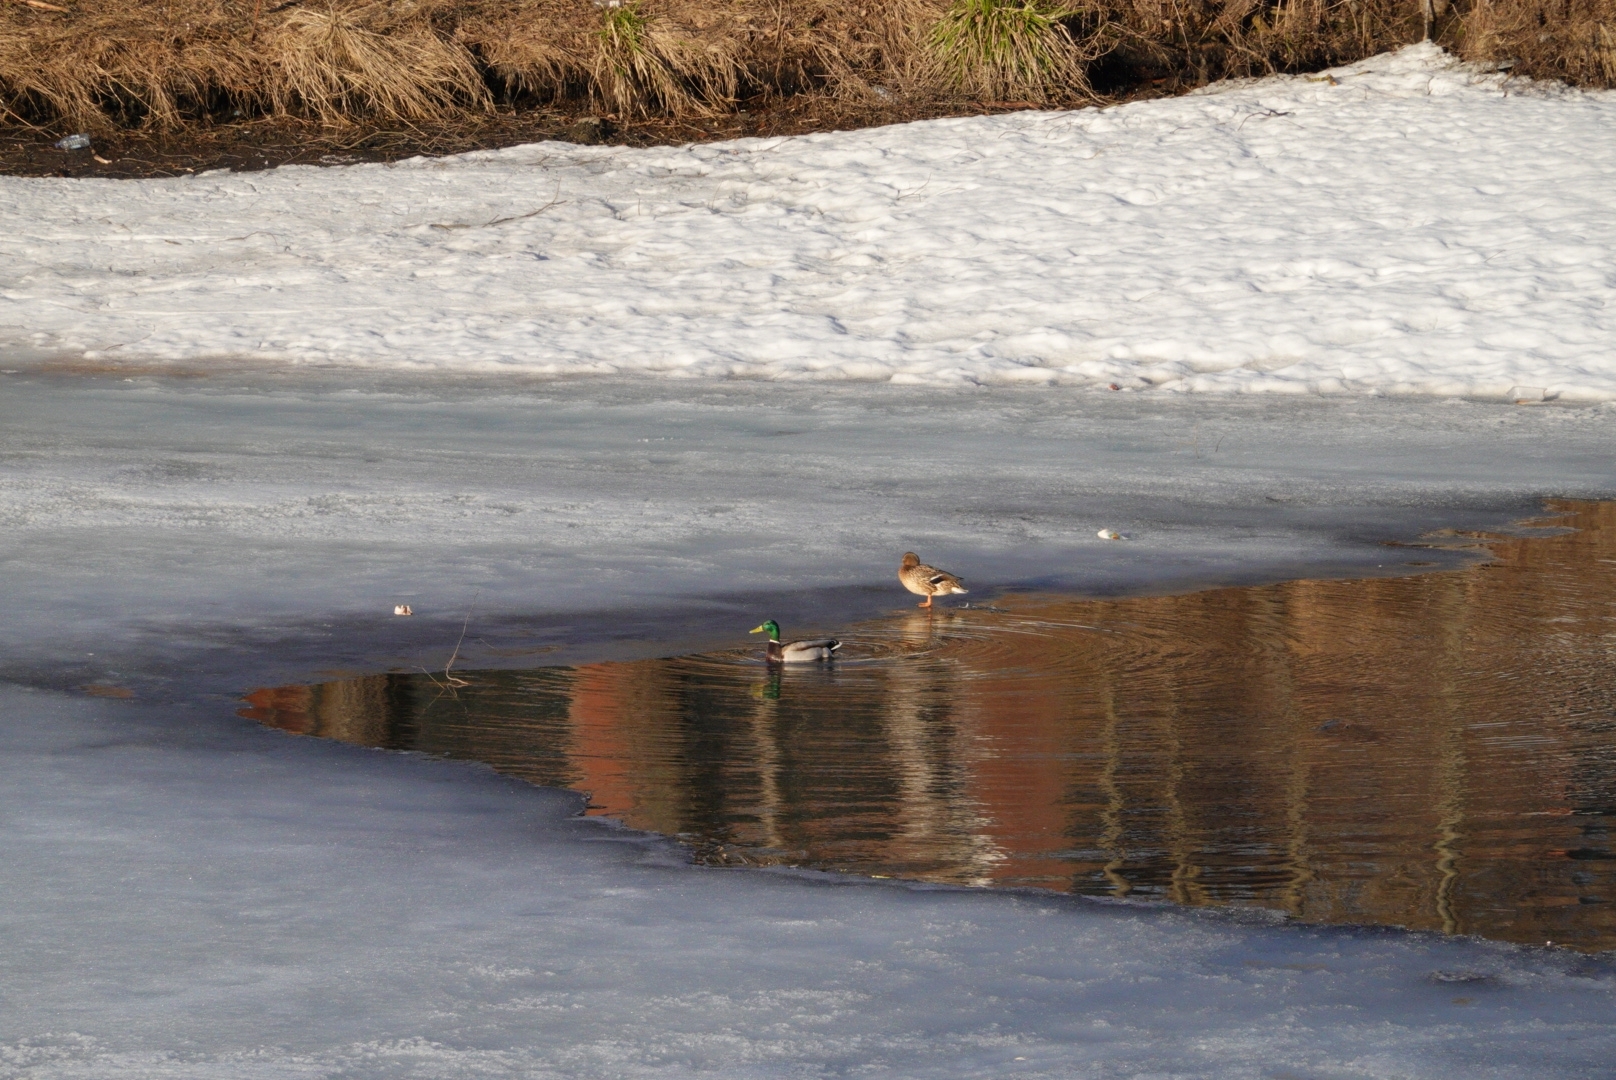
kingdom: Animalia
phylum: Chordata
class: Aves
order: Anseriformes
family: Anatidae
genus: Anas
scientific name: Anas platyrhynchos
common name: Mallard
